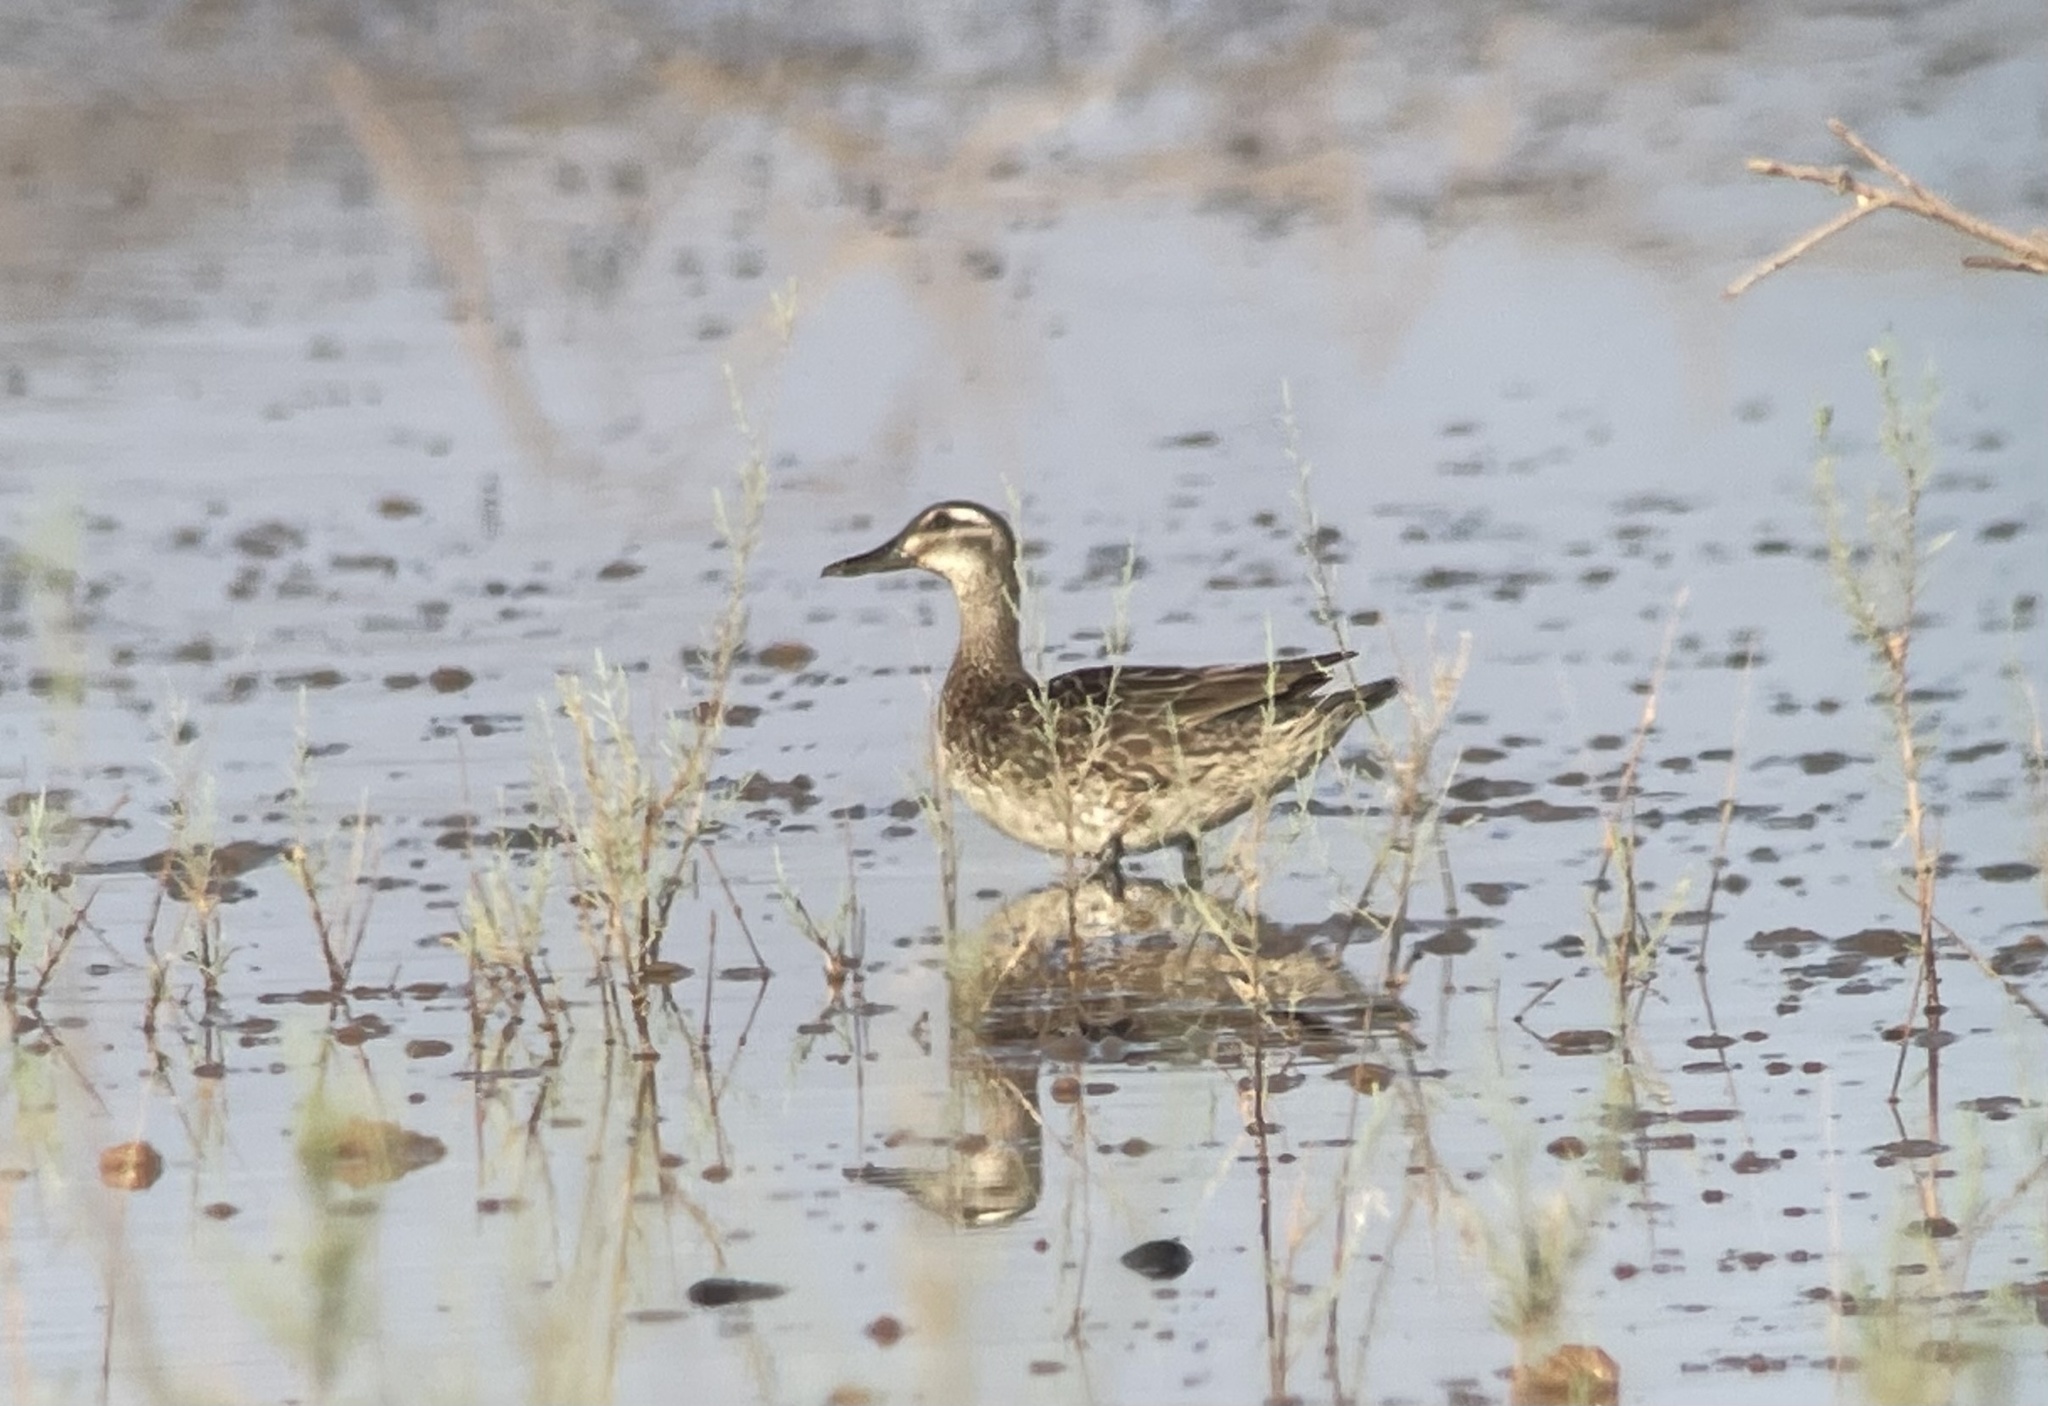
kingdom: Animalia
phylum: Chordata
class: Aves
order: Anseriformes
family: Anatidae
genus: Spatula
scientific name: Spatula querquedula
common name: Garganey
